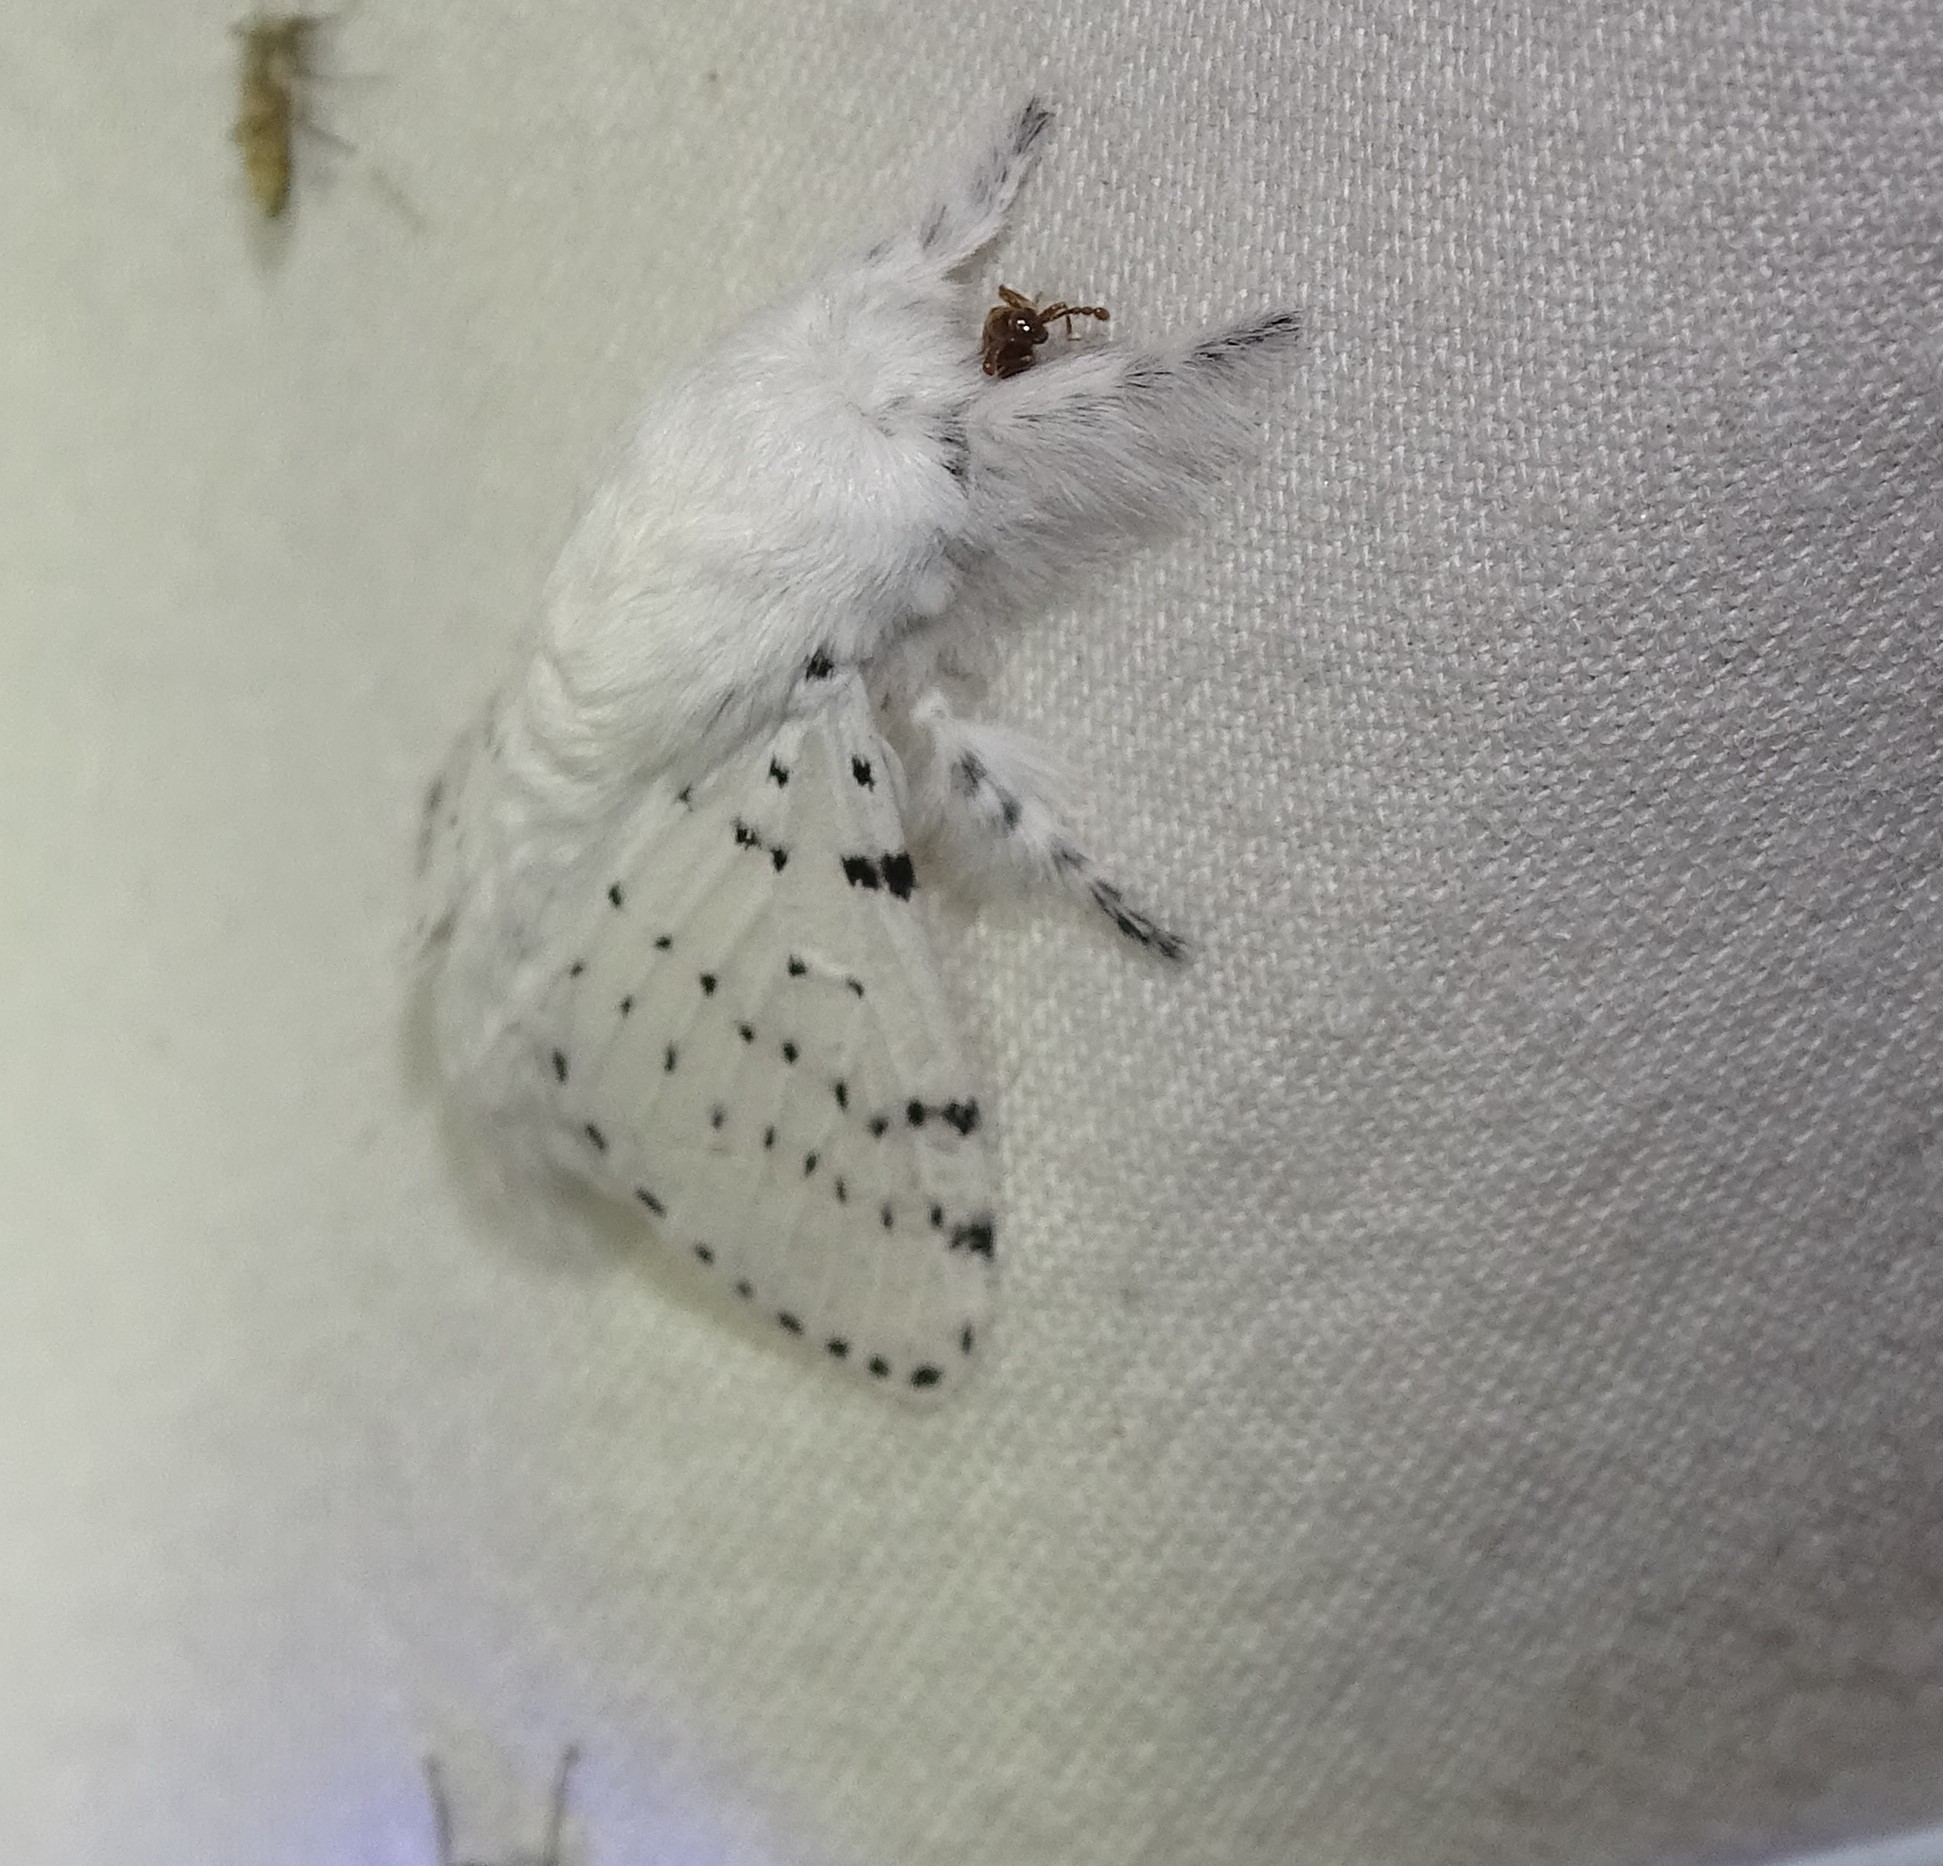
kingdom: Animalia
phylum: Arthropoda
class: Insecta
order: Lepidoptera
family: Lasiocampidae
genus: Artace
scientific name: Artace cribrarius
